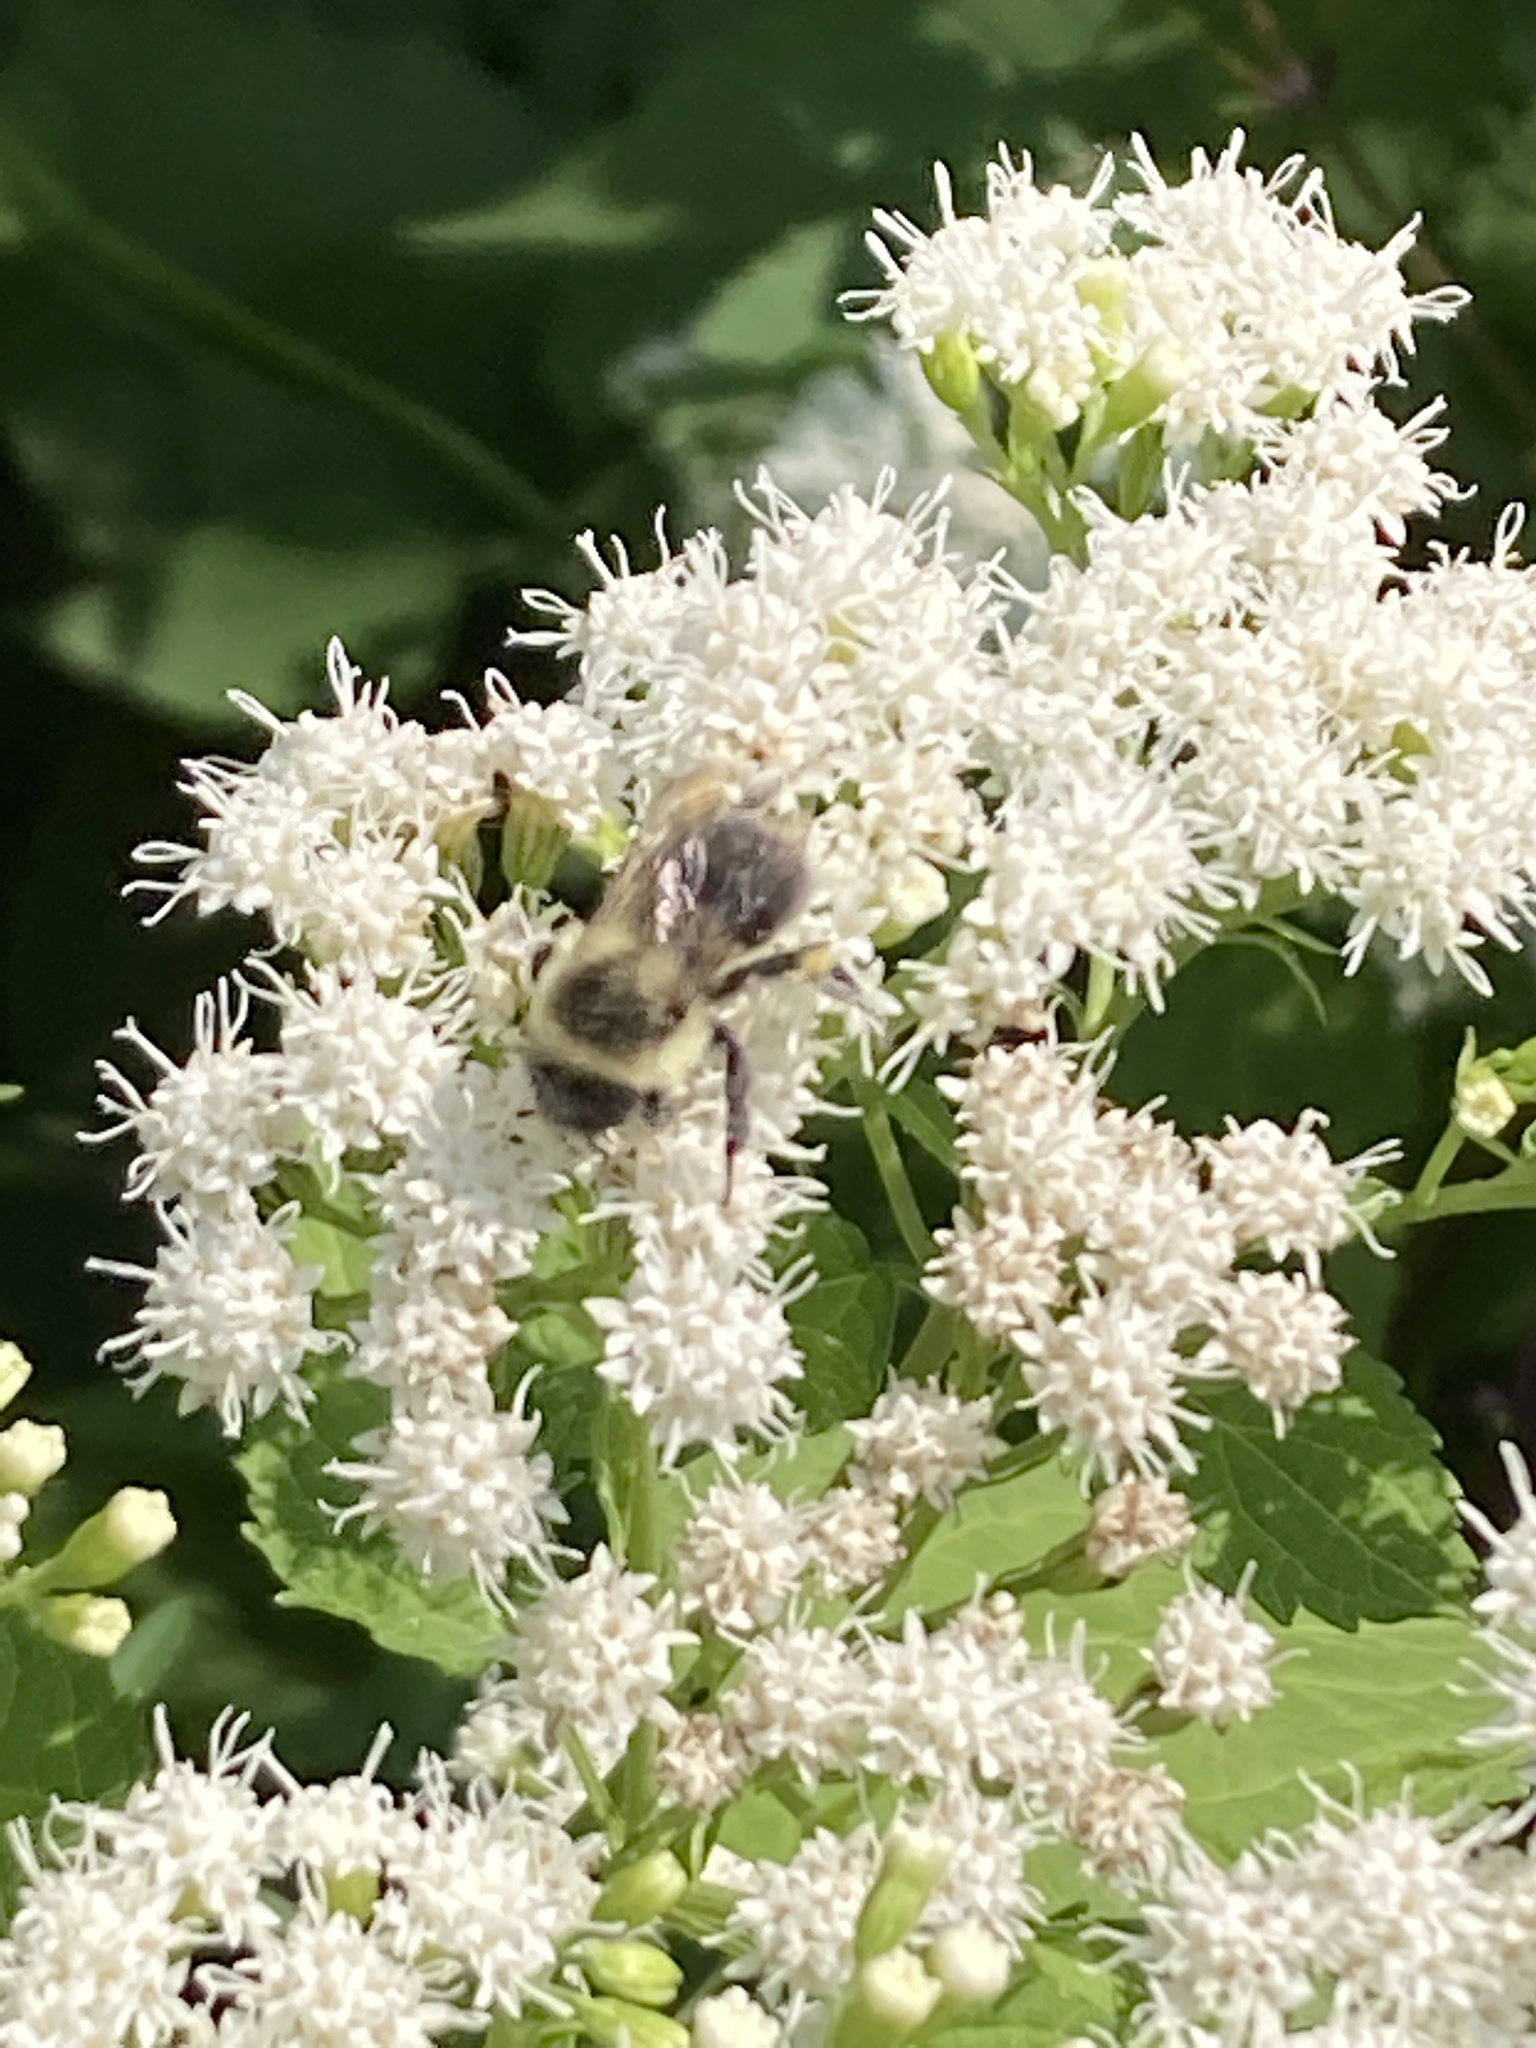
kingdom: Animalia
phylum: Arthropoda
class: Insecta
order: Hymenoptera
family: Apidae
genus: Bombus
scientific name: Bombus impatiens
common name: Common eastern bumble bee
